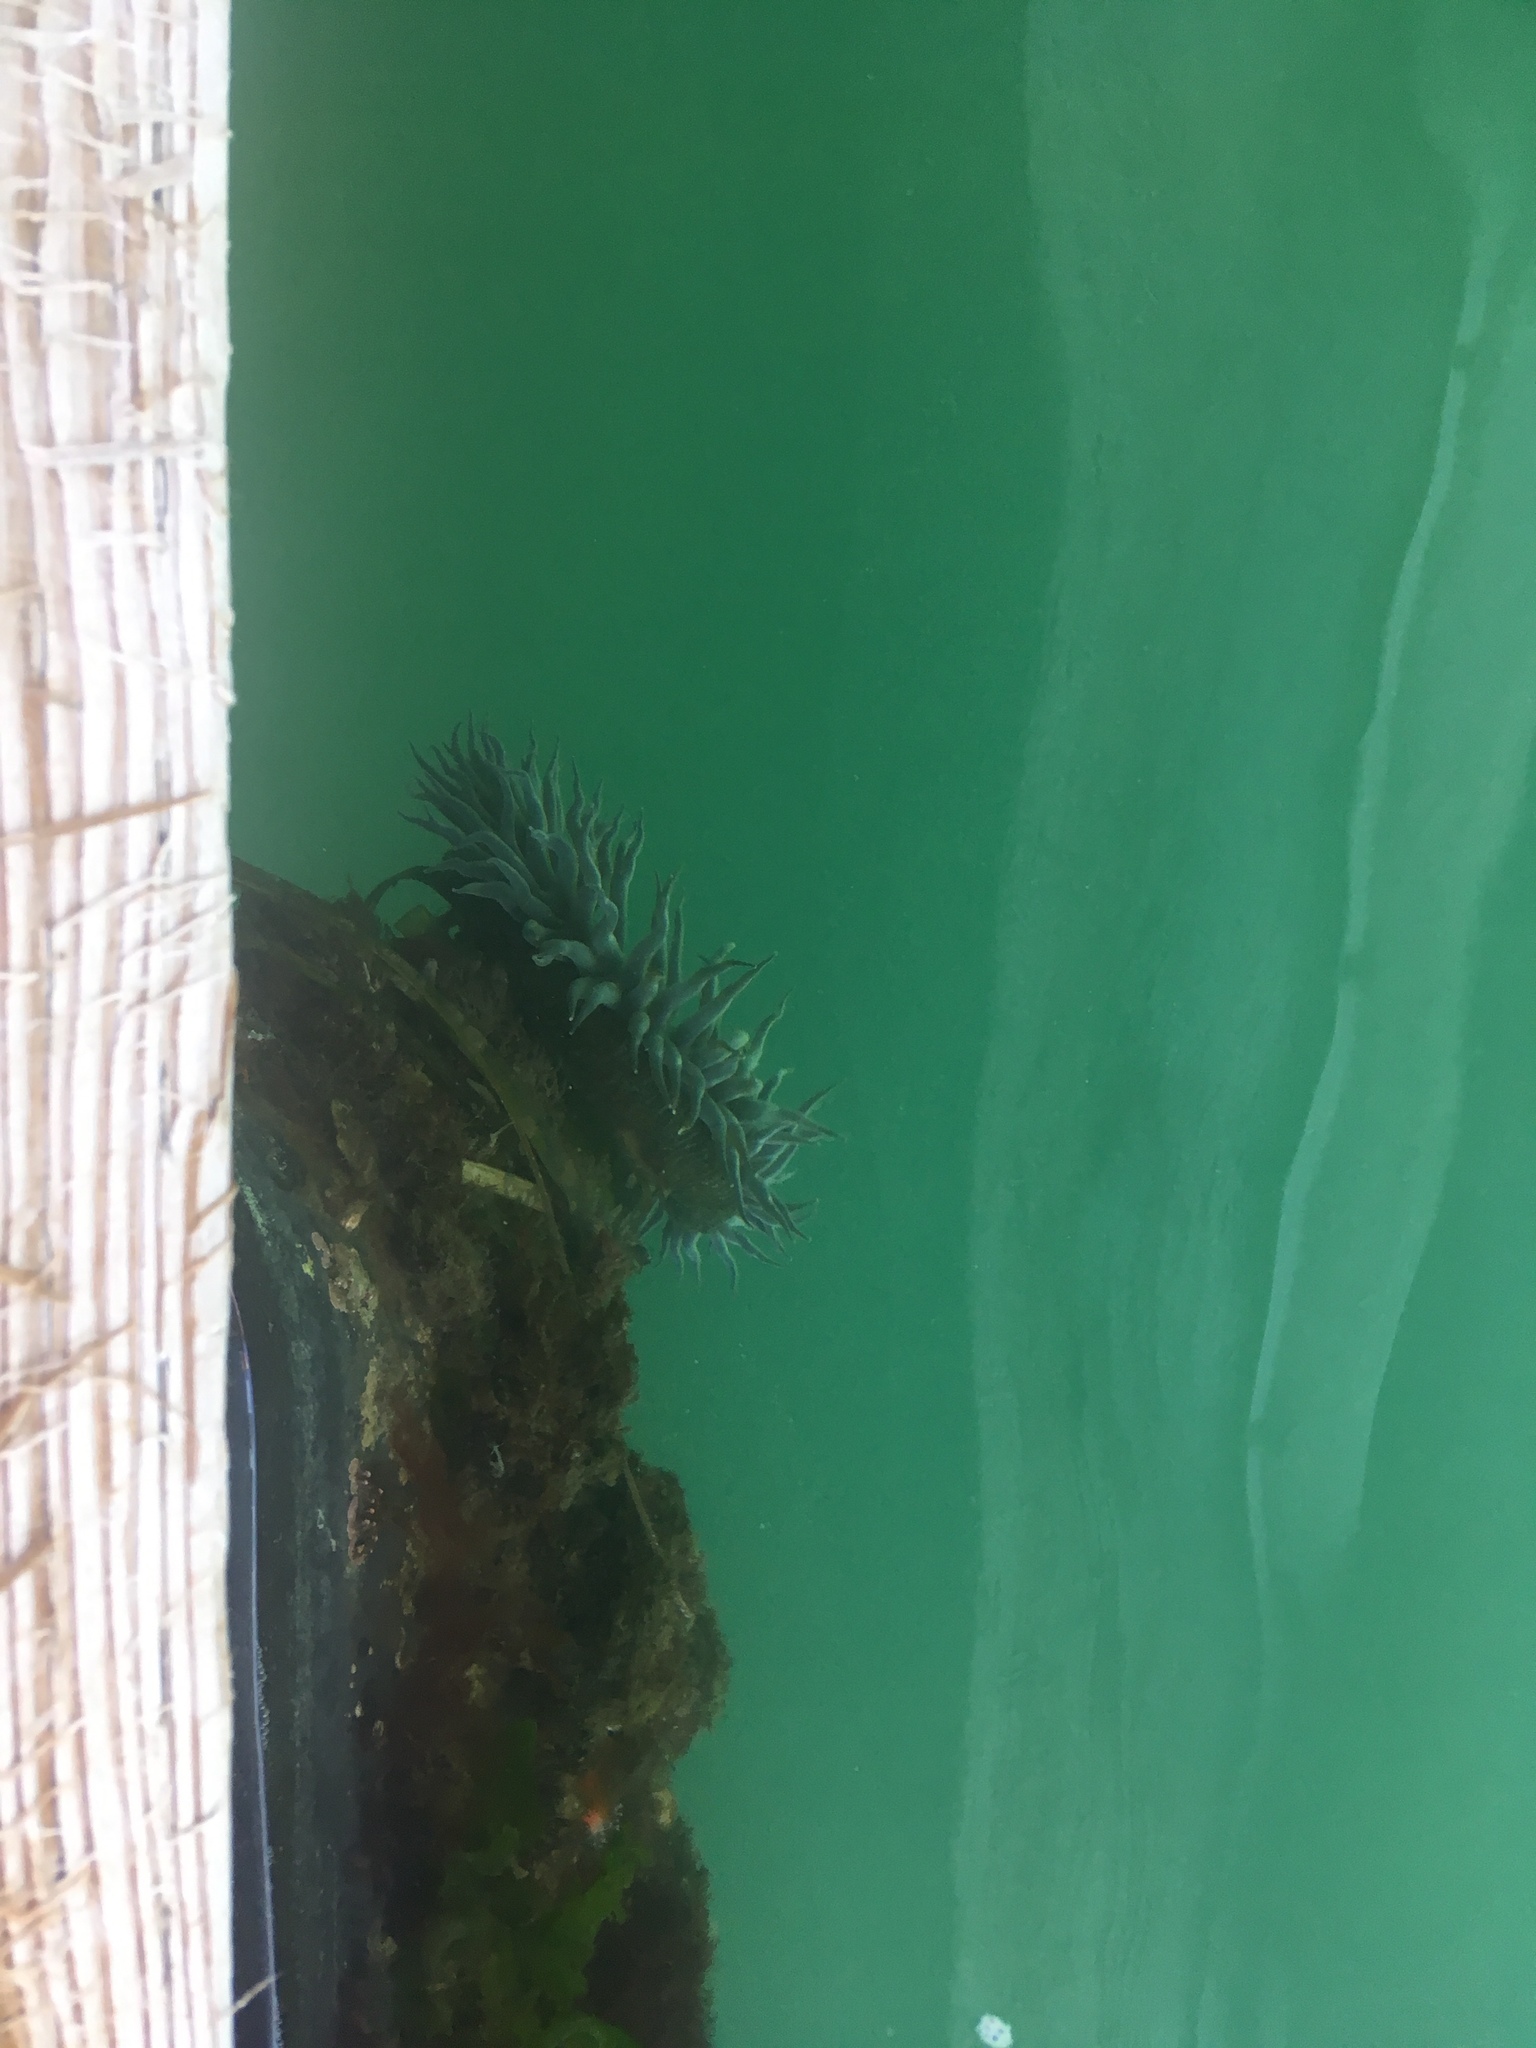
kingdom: Animalia
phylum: Cnidaria
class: Anthozoa
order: Actiniaria
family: Actiniidae
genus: Anthopleura
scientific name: Anthopleura sola
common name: Sun anemone
